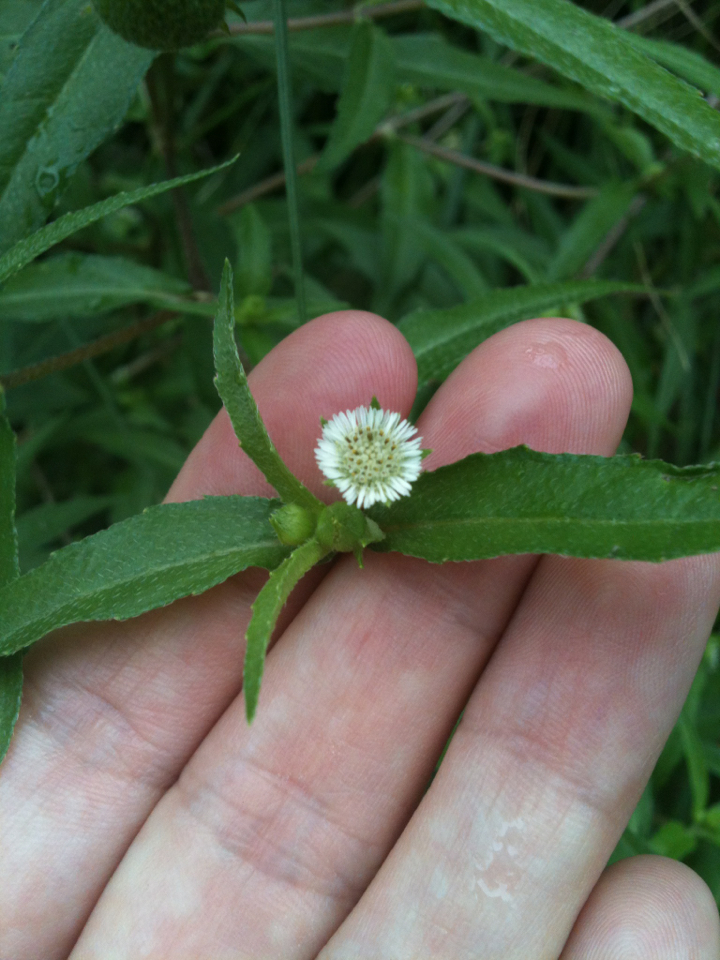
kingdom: Plantae
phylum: Tracheophyta
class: Magnoliopsida
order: Asterales
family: Asteraceae
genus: Eclipta
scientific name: Eclipta prostrata
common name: False daisy
